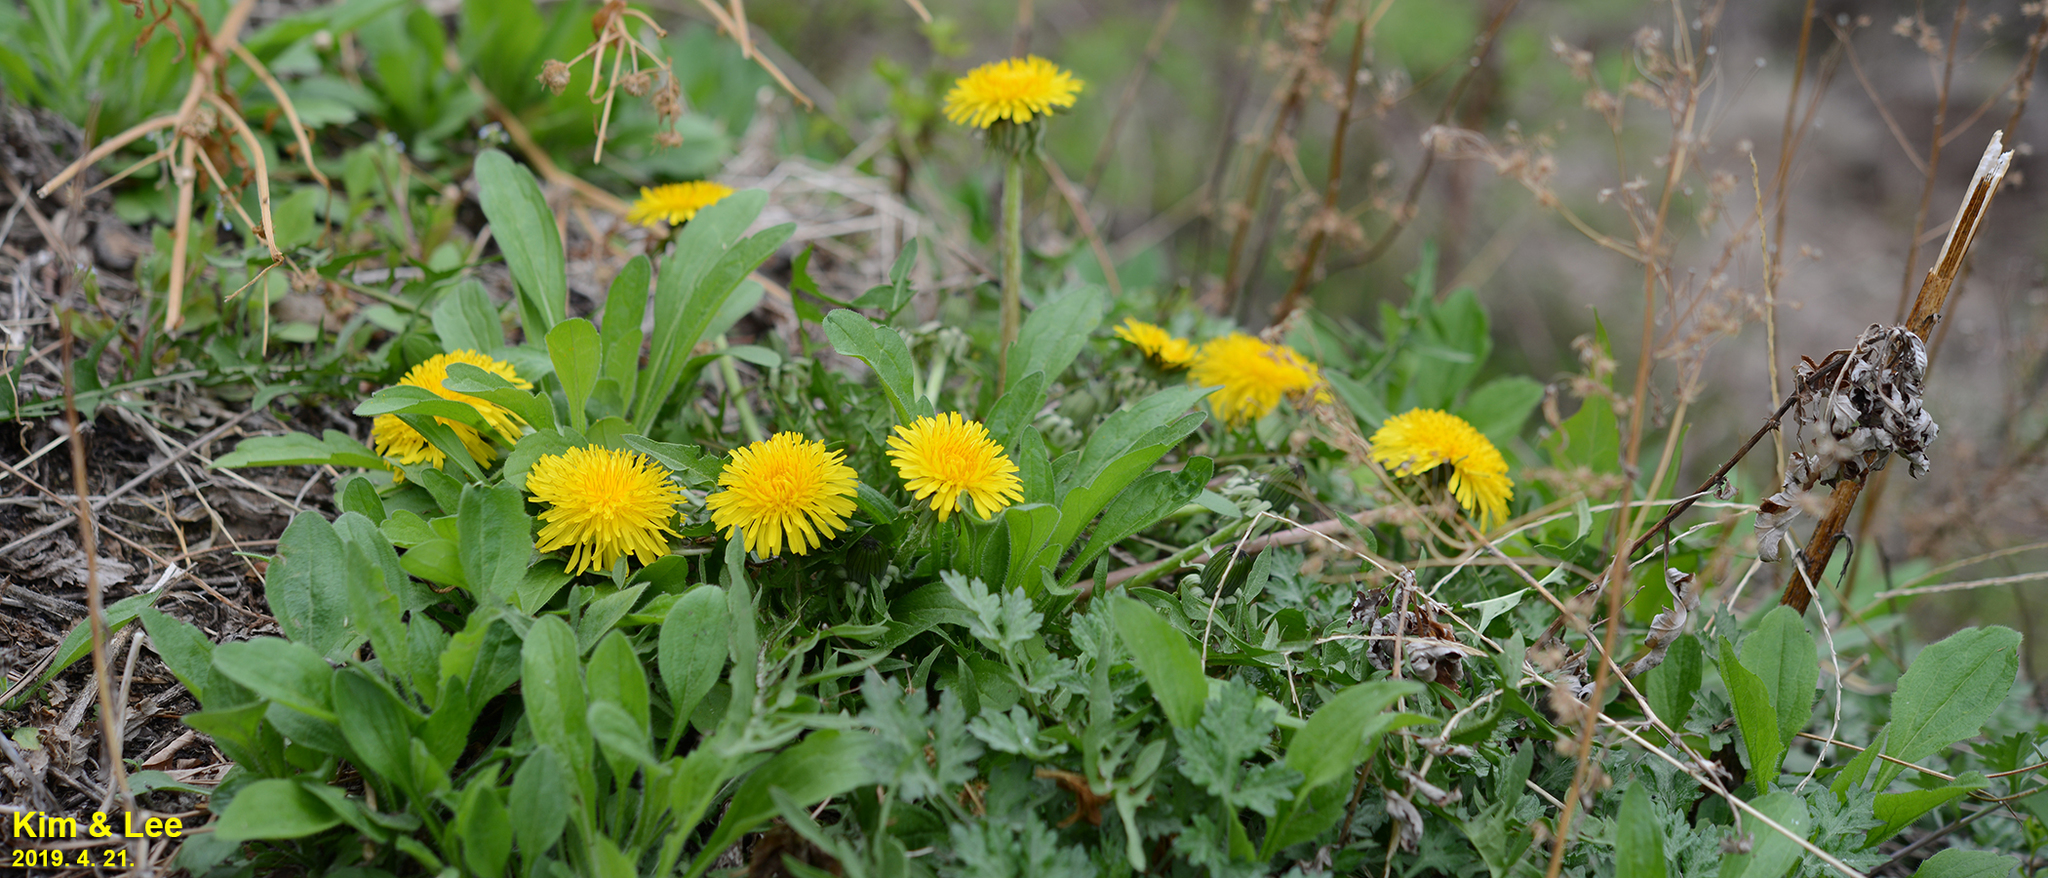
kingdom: Plantae
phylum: Tracheophyta
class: Magnoliopsida
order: Asterales
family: Asteraceae
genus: Taraxacum
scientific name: Taraxacum officinale
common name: Common dandelion
